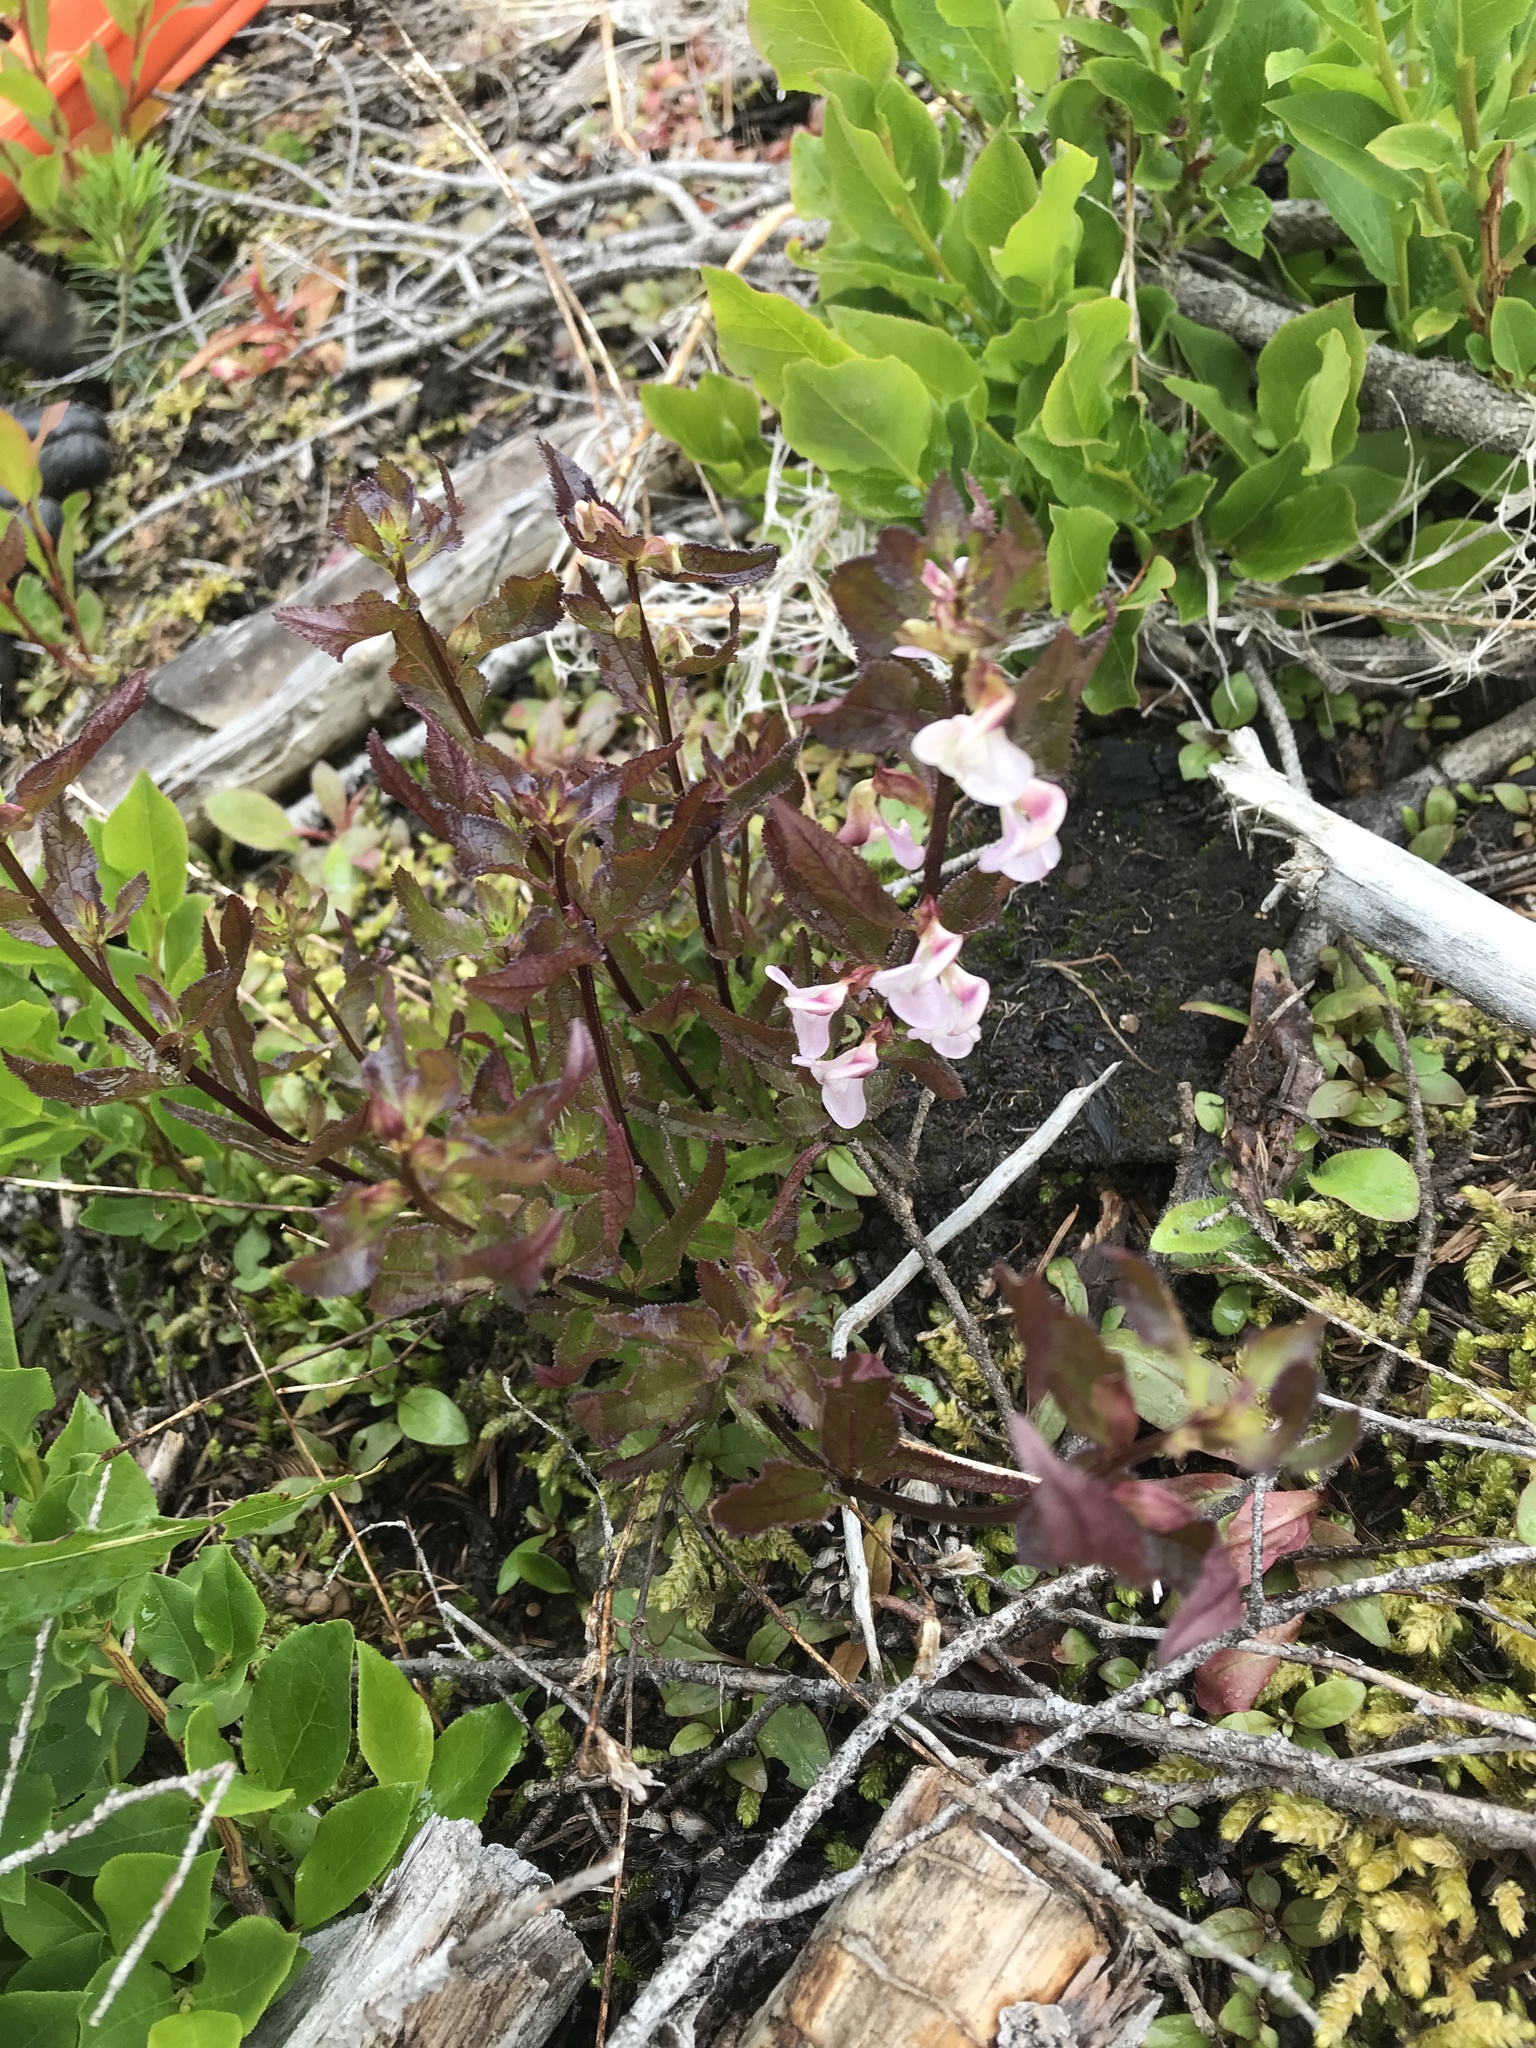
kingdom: Plantae
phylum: Tracheophyta
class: Magnoliopsida
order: Lamiales
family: Orobanchaceae
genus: Pedicularis
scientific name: Pedicularis racemosa
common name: Leafy lousewort
